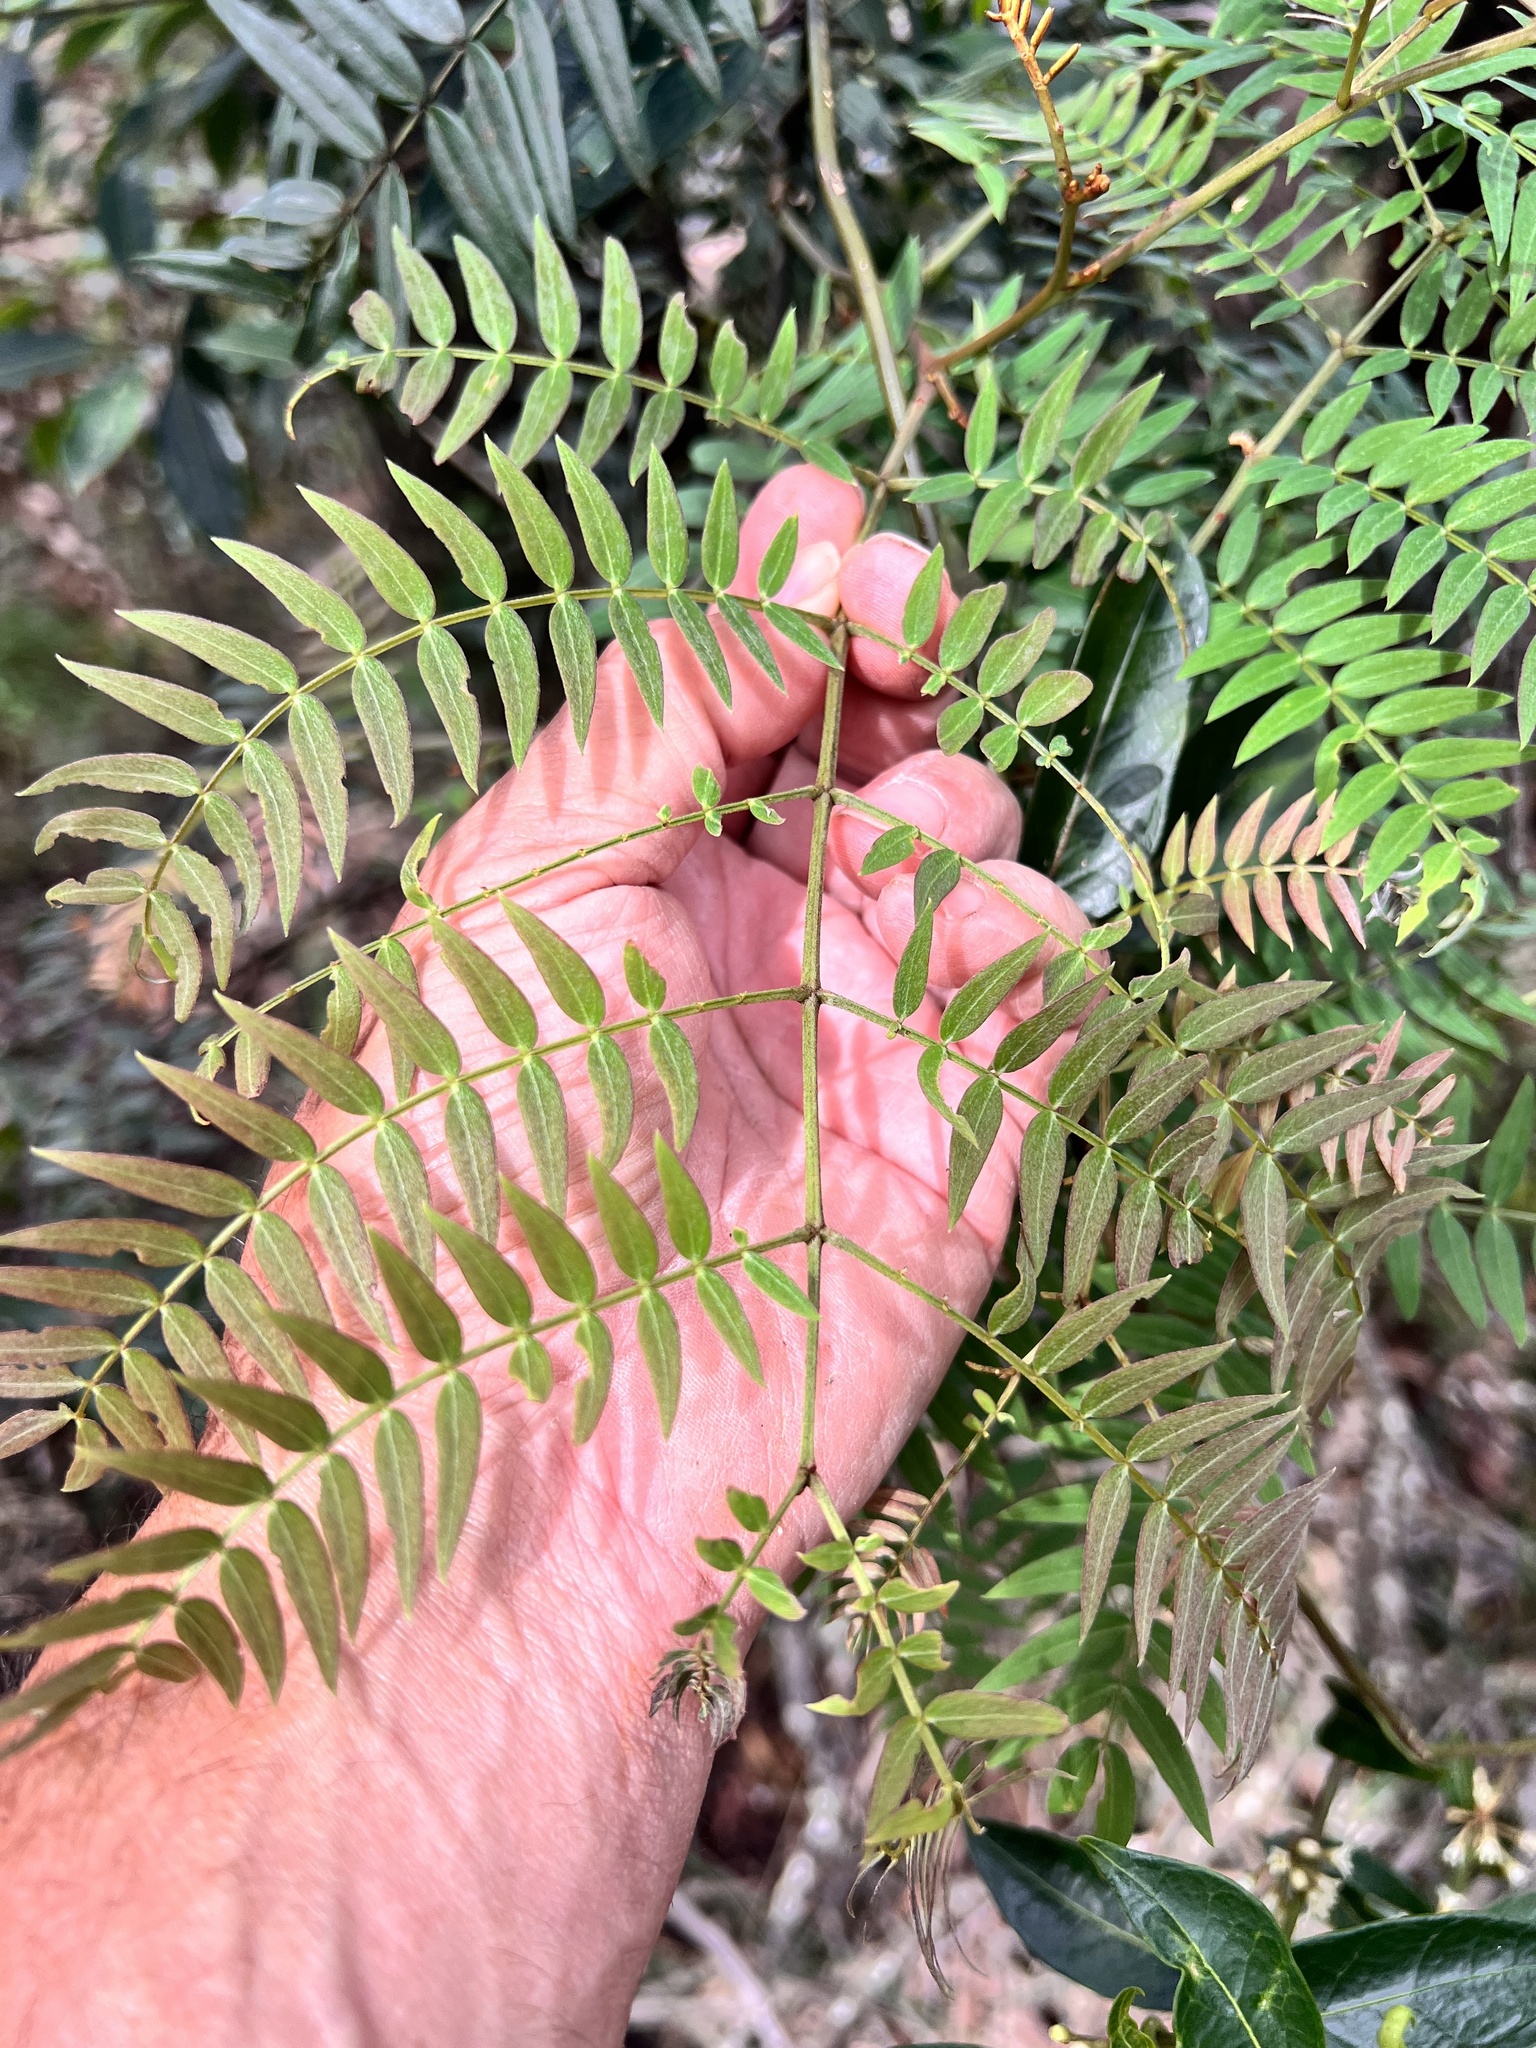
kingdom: Plantae
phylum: Tracheophyta
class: Magnoliopsida
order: Fabales
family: Fabaceae
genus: Acacia
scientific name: Acacia elata
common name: Cedar wattle
